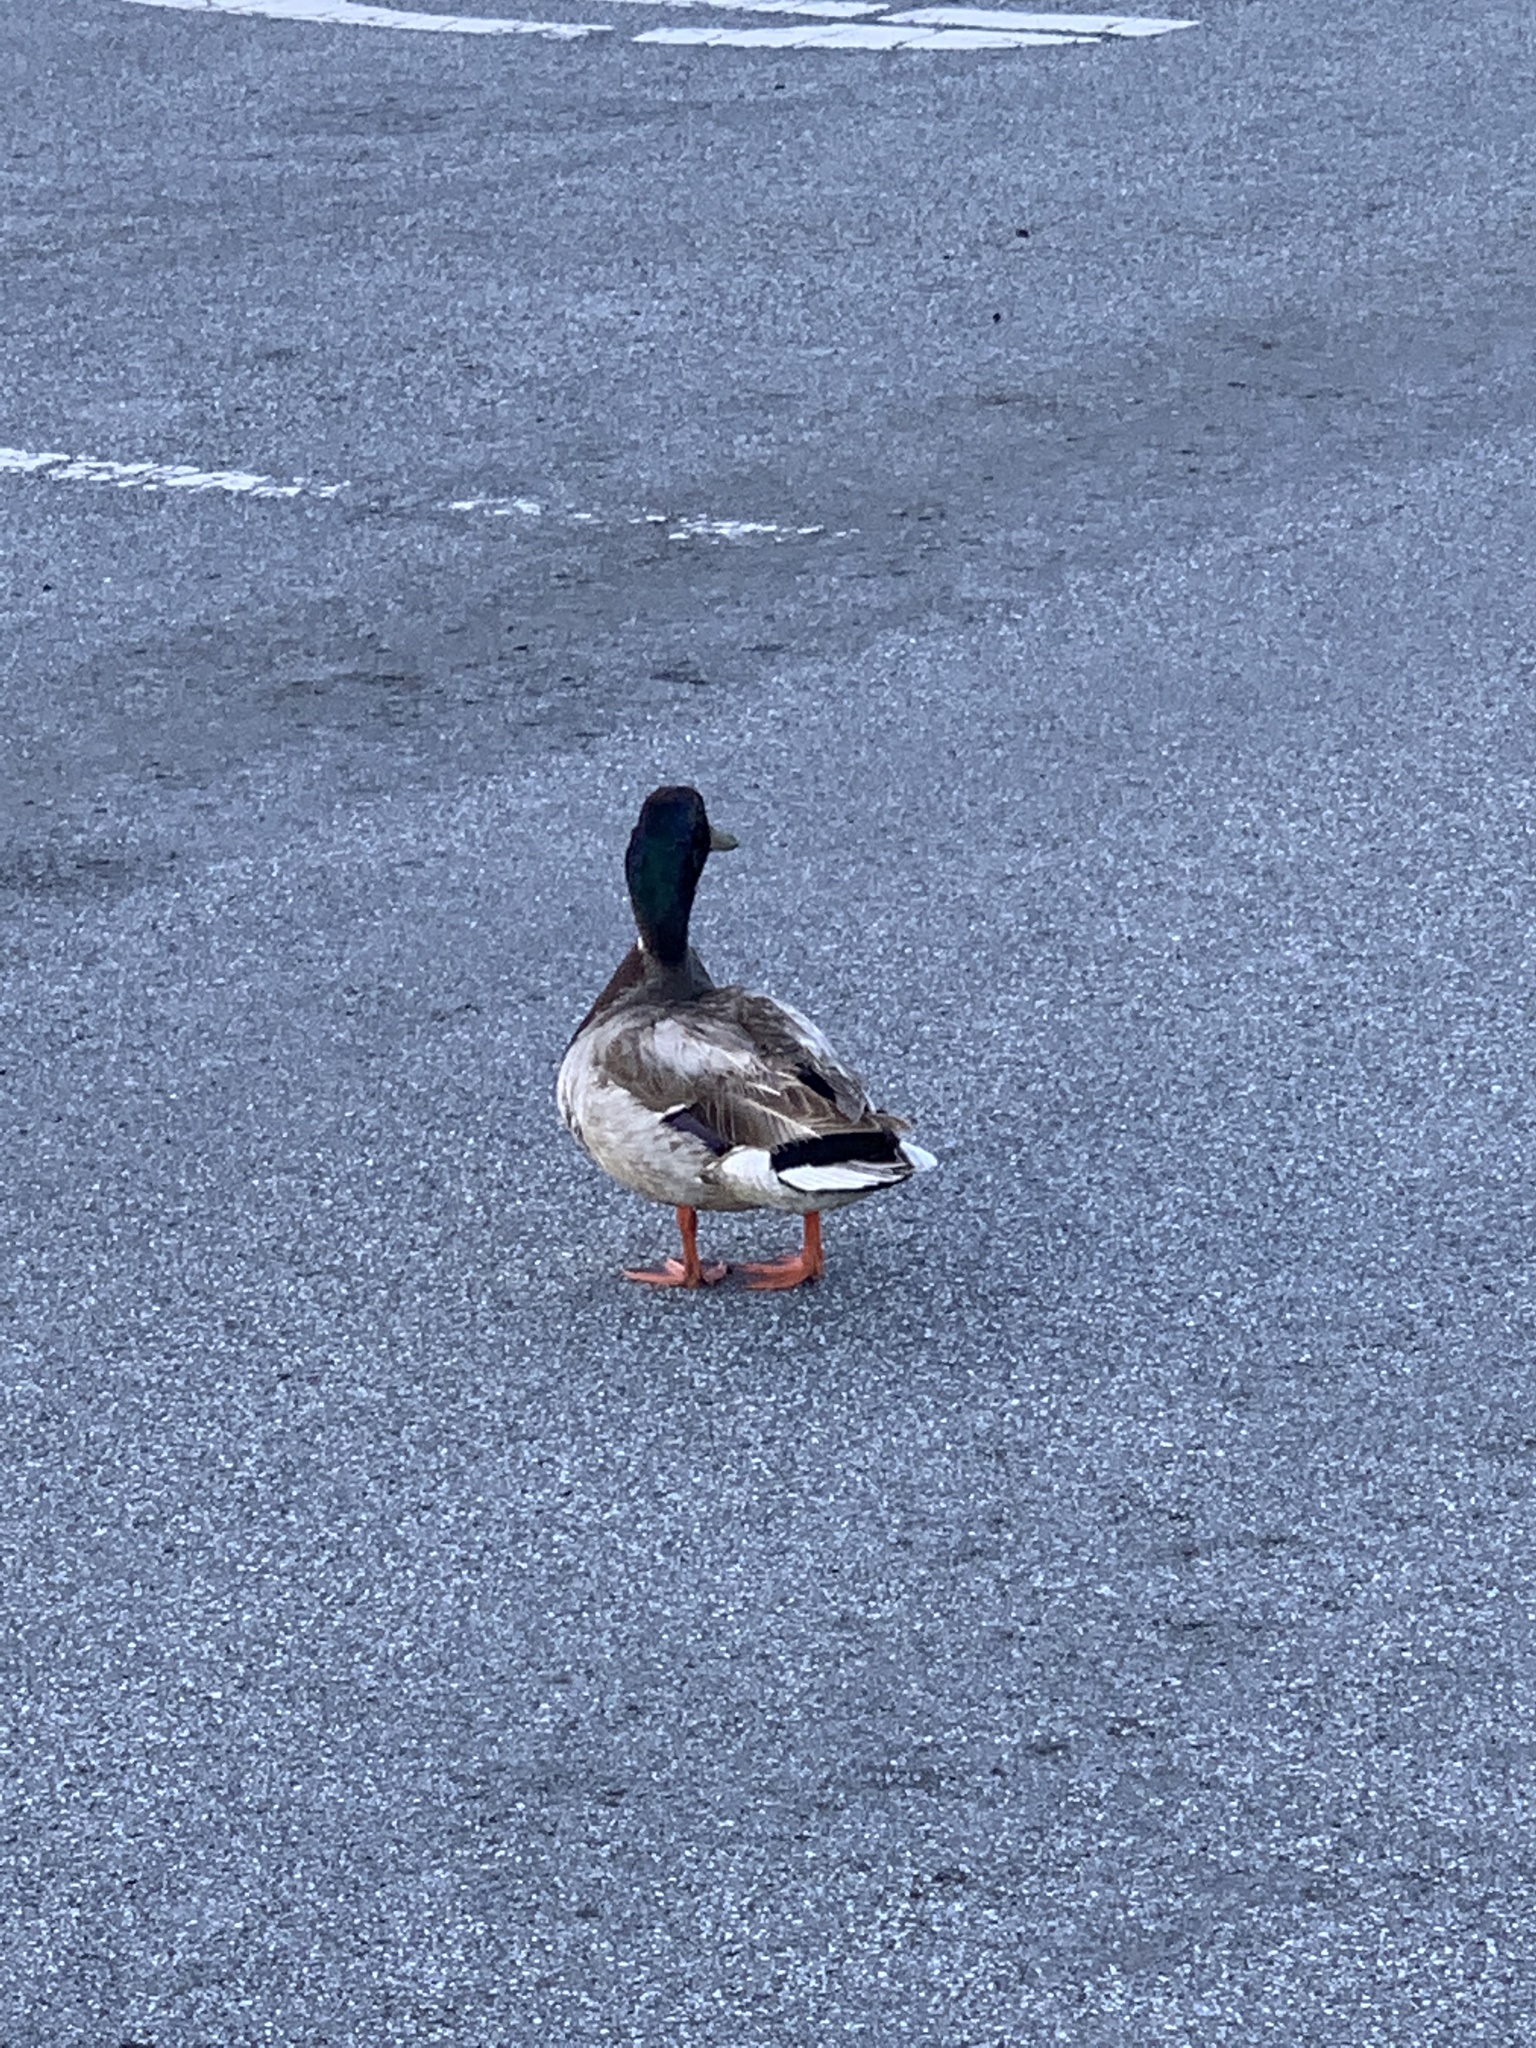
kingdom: Animalia
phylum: Chordata
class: Aves
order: Anseriformes
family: Anatidae
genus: Anas
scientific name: Anas platyrhynchos
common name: Mallard
